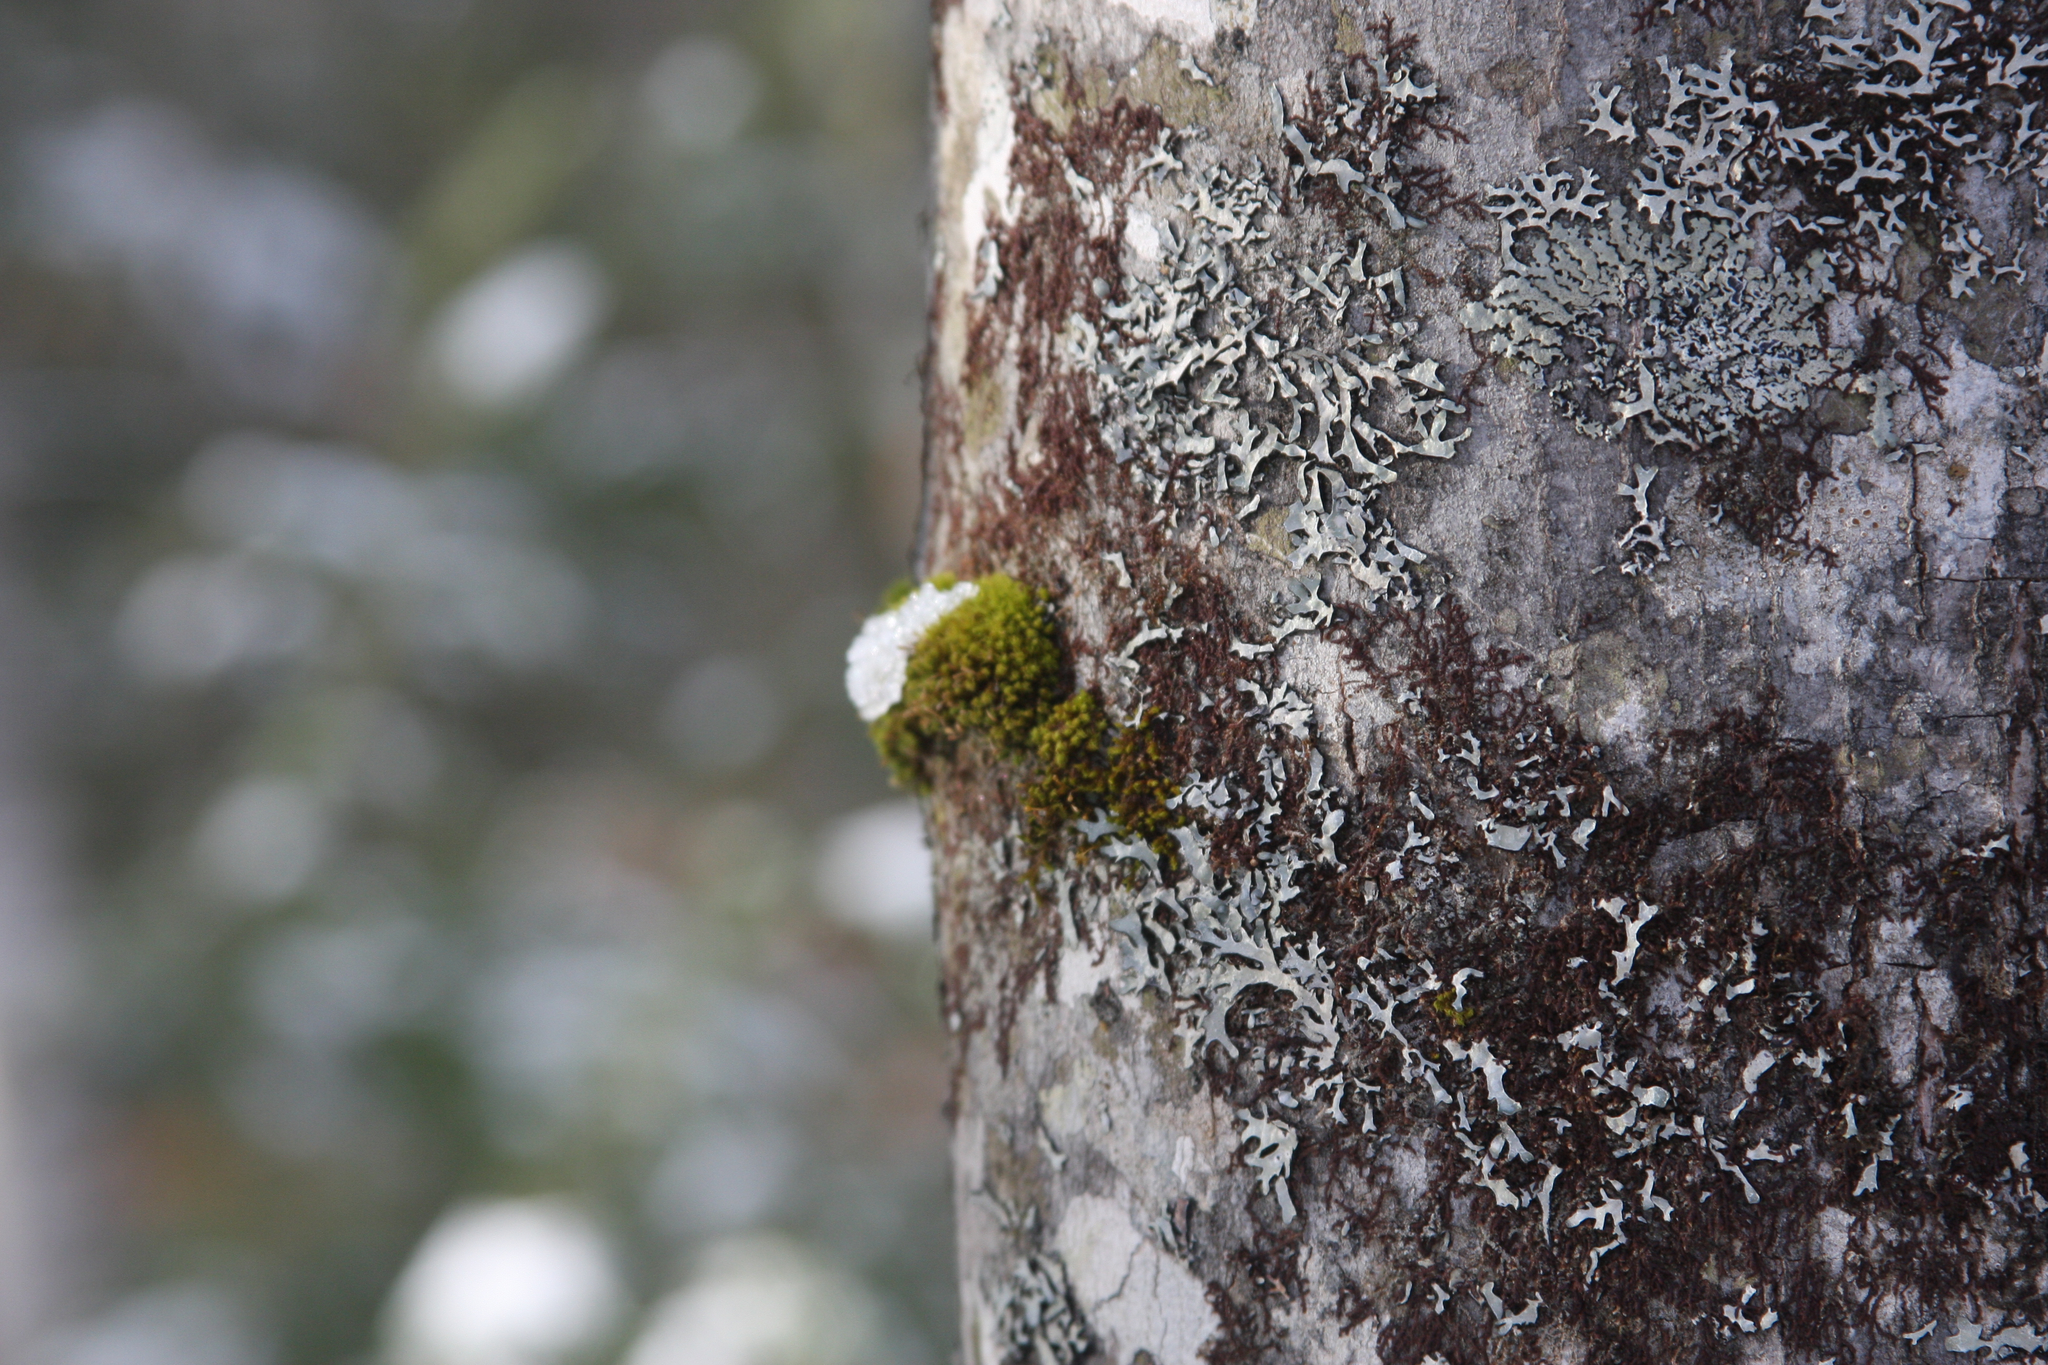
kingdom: Plantae
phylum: Bryophyta
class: Bryopsida
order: Orthotrichales
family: Orthotrichaceae
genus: Ulota
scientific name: Ulota crispa
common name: Crisped pincushion moss
